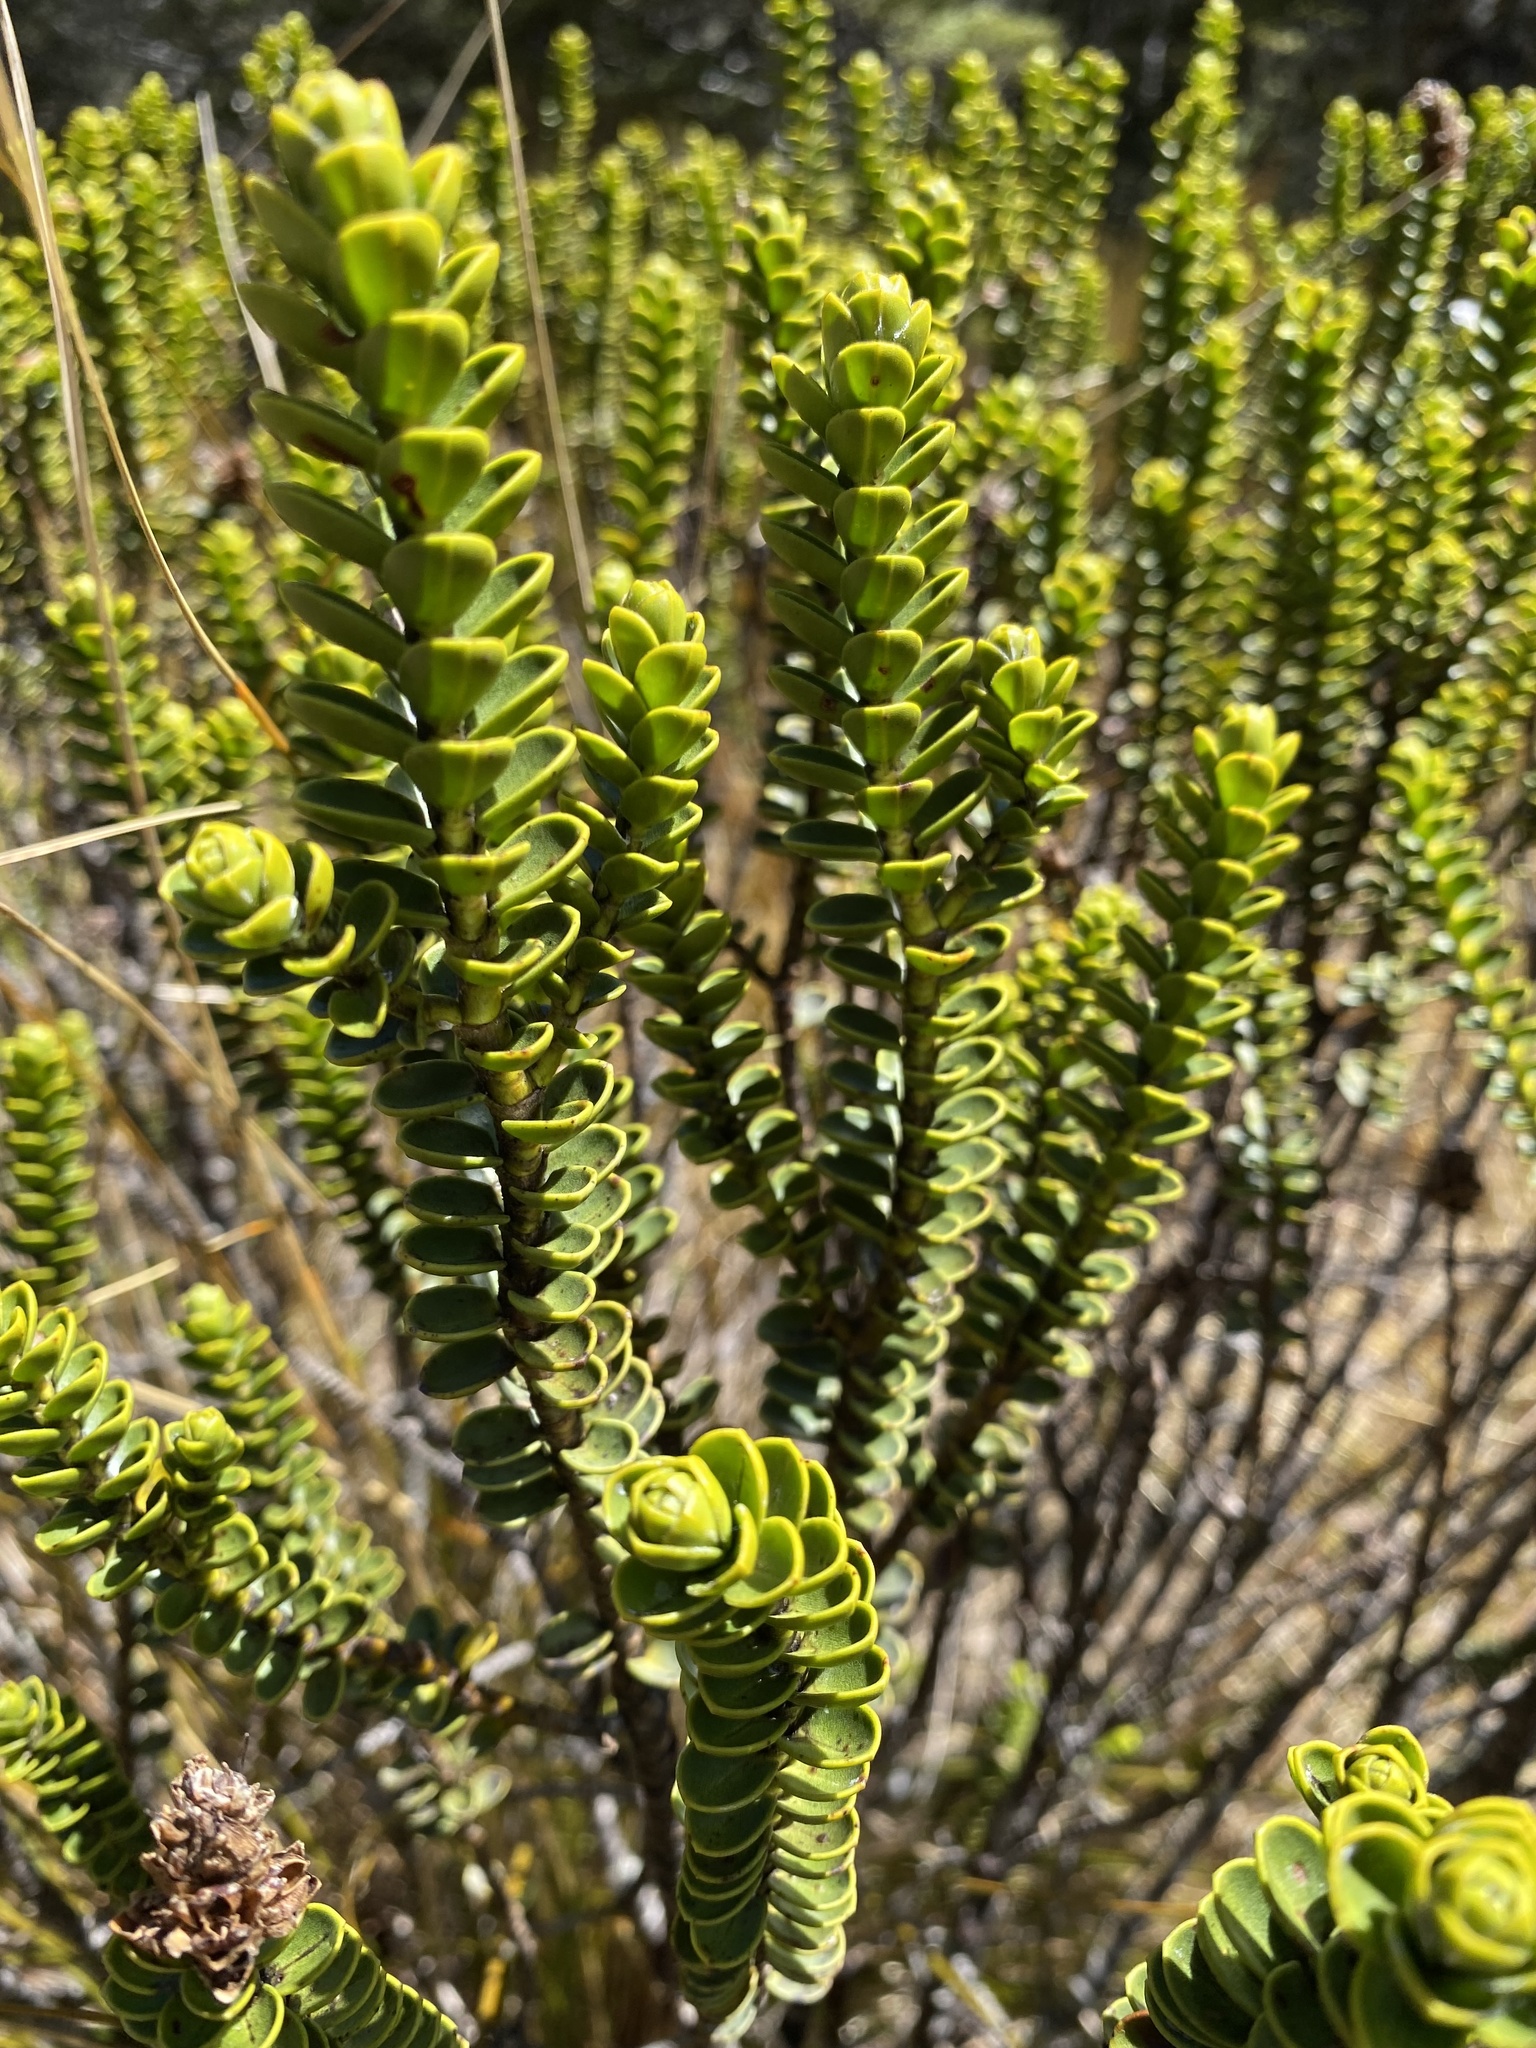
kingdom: Plantae
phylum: Tracheophyta
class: Magnoliopsida
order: Lamiales
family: Plantaginaceae
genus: Veronica
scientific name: Veronica odora
